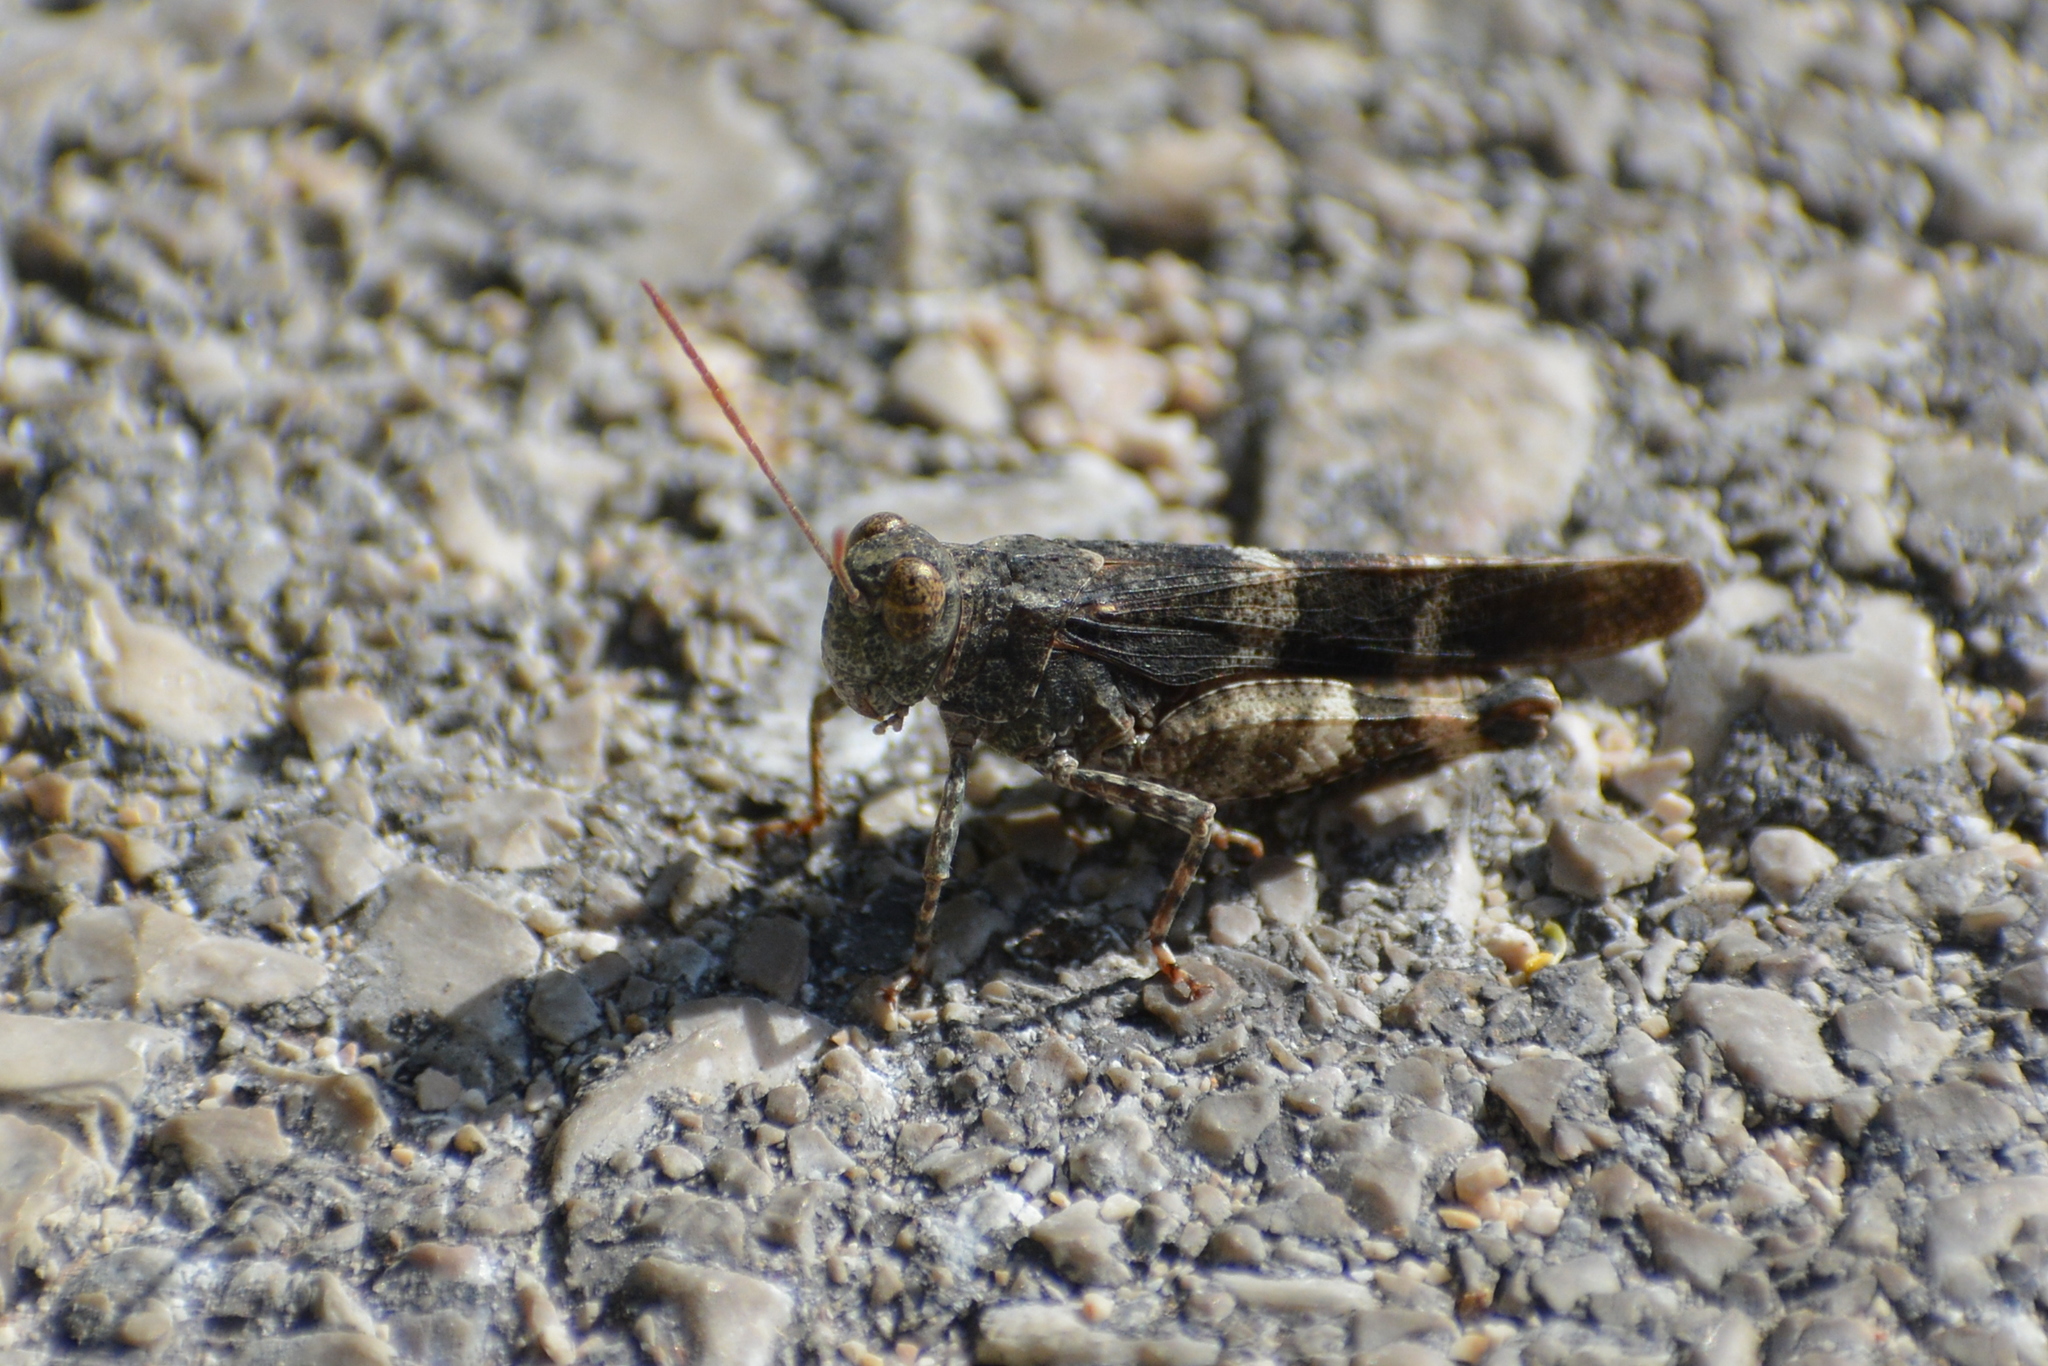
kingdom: Animalia
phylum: Arthropoda
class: Insecta
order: Orthoptera
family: Acrididae
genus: Oedipoda
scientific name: Oedipoda germanica
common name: Red band-winged grasshopper
